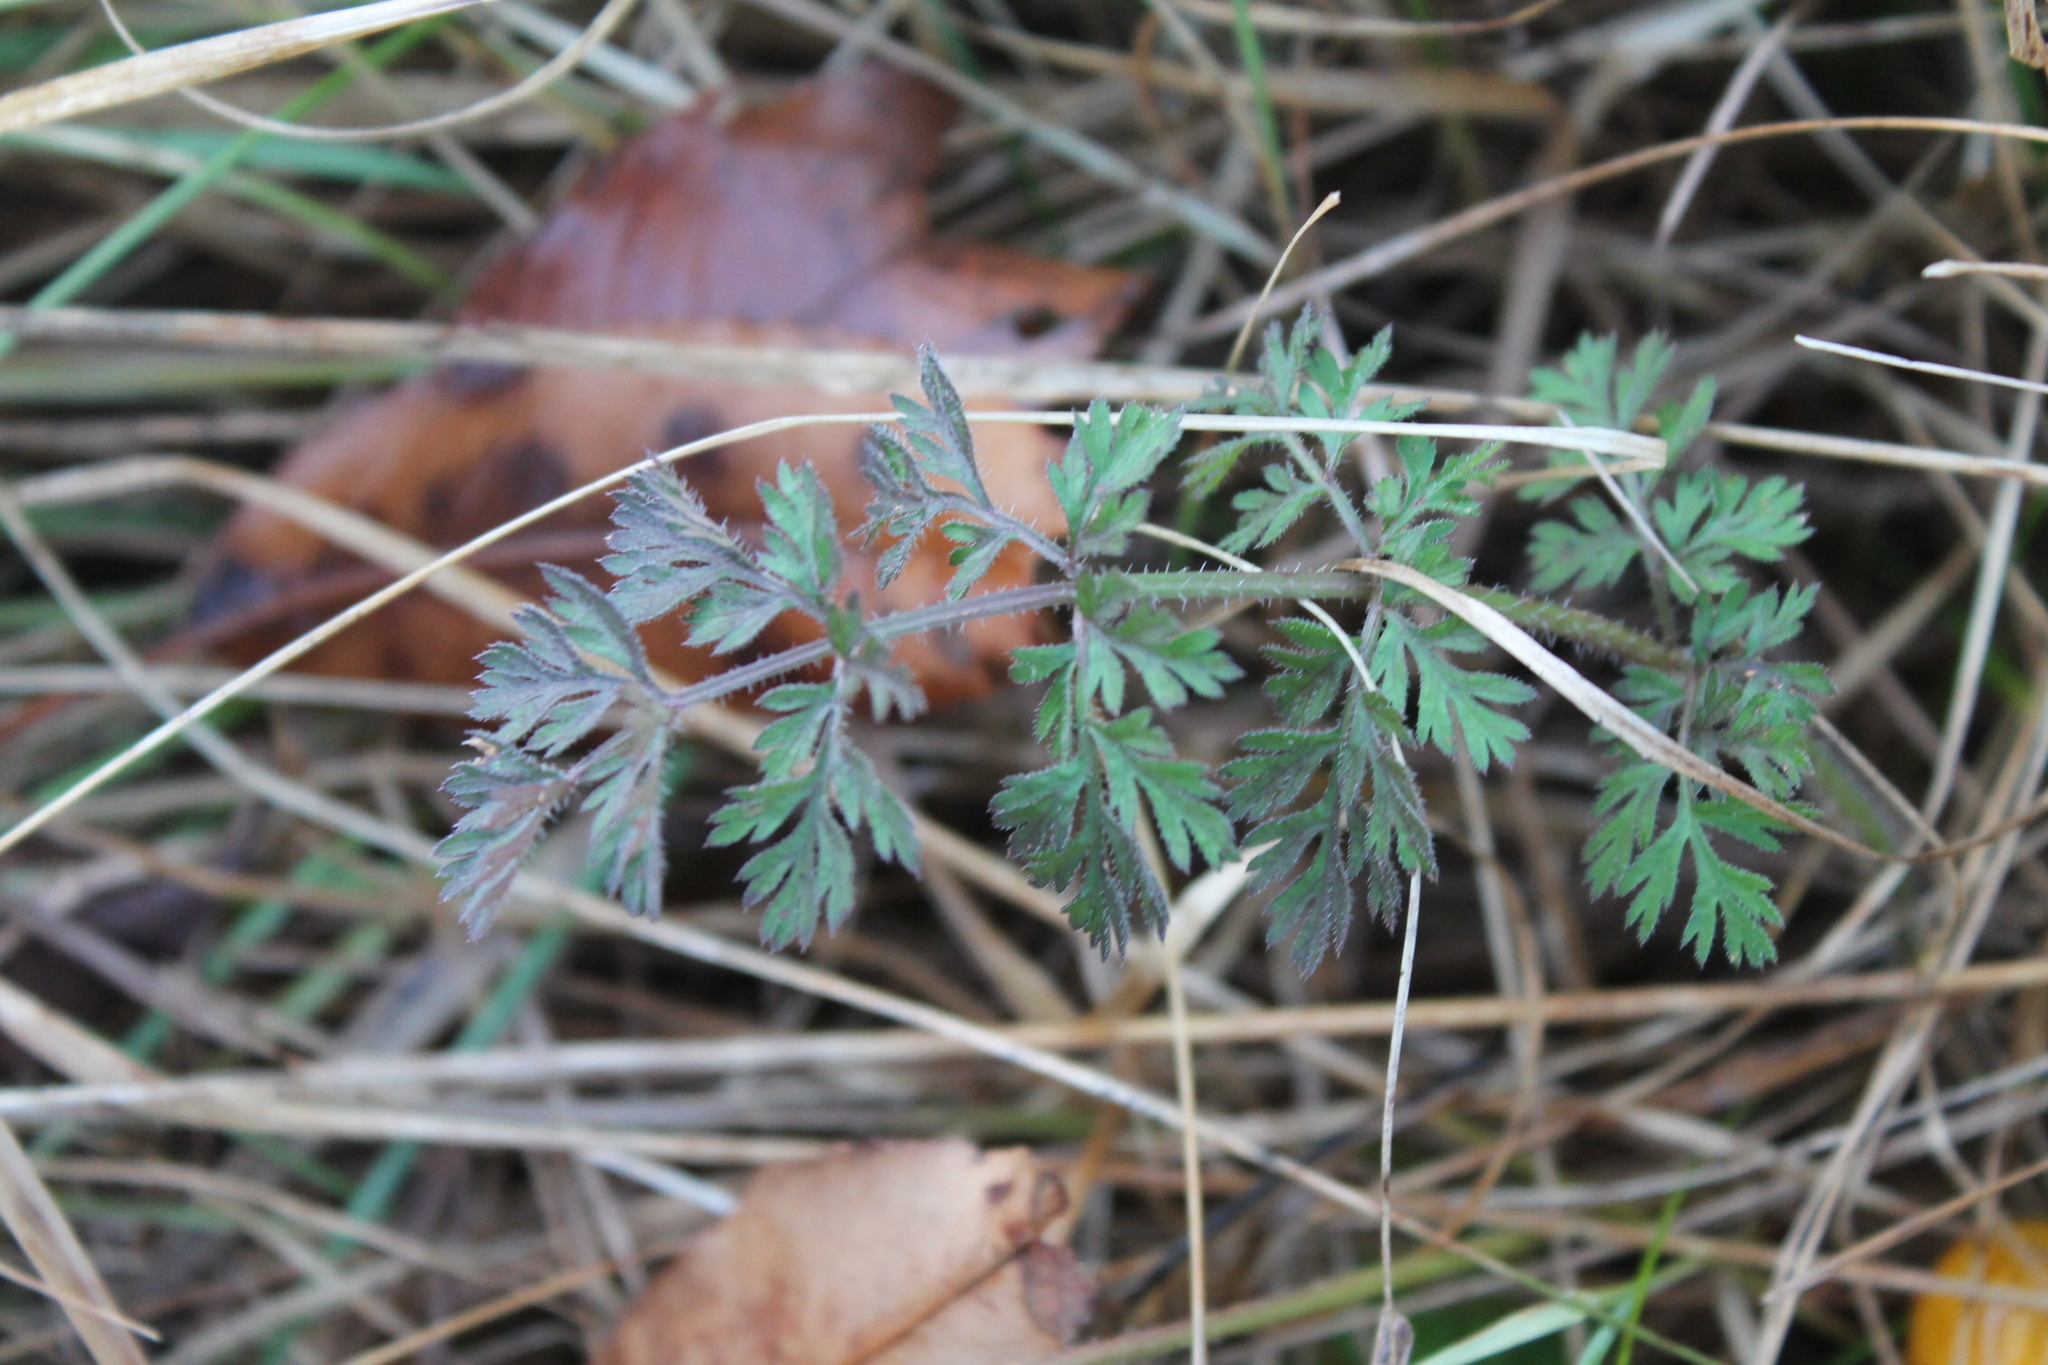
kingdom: Plantae
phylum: Tracheophyta
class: Magnoliopsida
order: Apiales
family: Apiaceae
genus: Daucus
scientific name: Daucus carota
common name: Wild carrot
